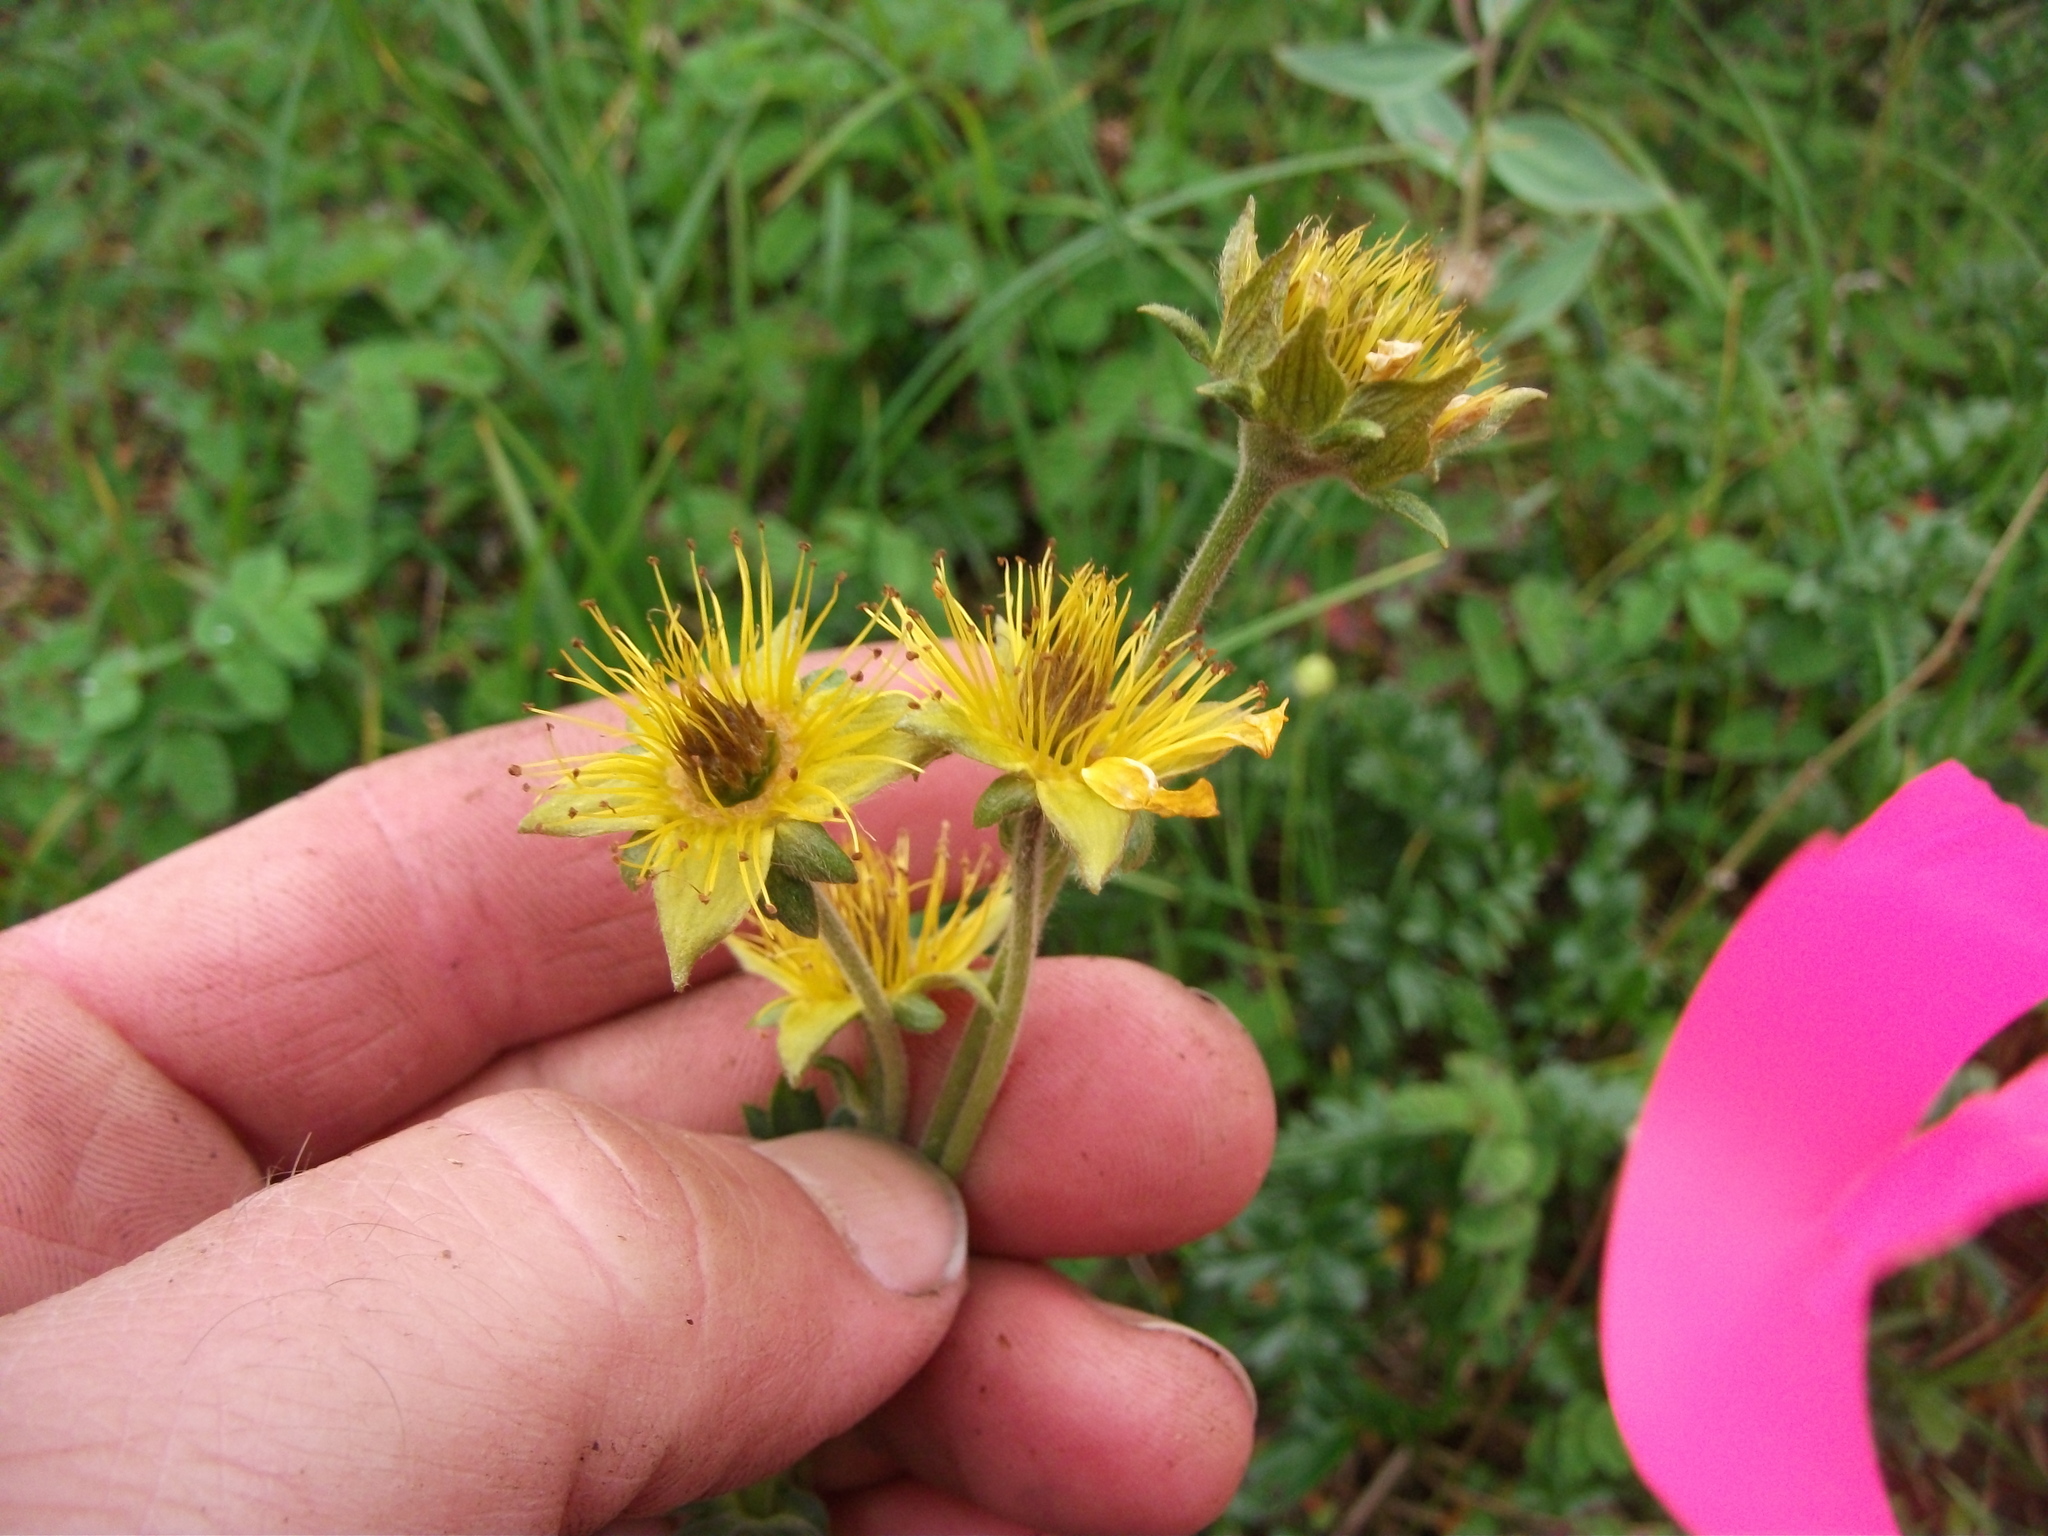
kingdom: Plantae
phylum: Tracheophyta
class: Magnoliopsida
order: Rosales
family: Rosaceae
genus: Geum
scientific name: Geum rossii
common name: Alpine avens
